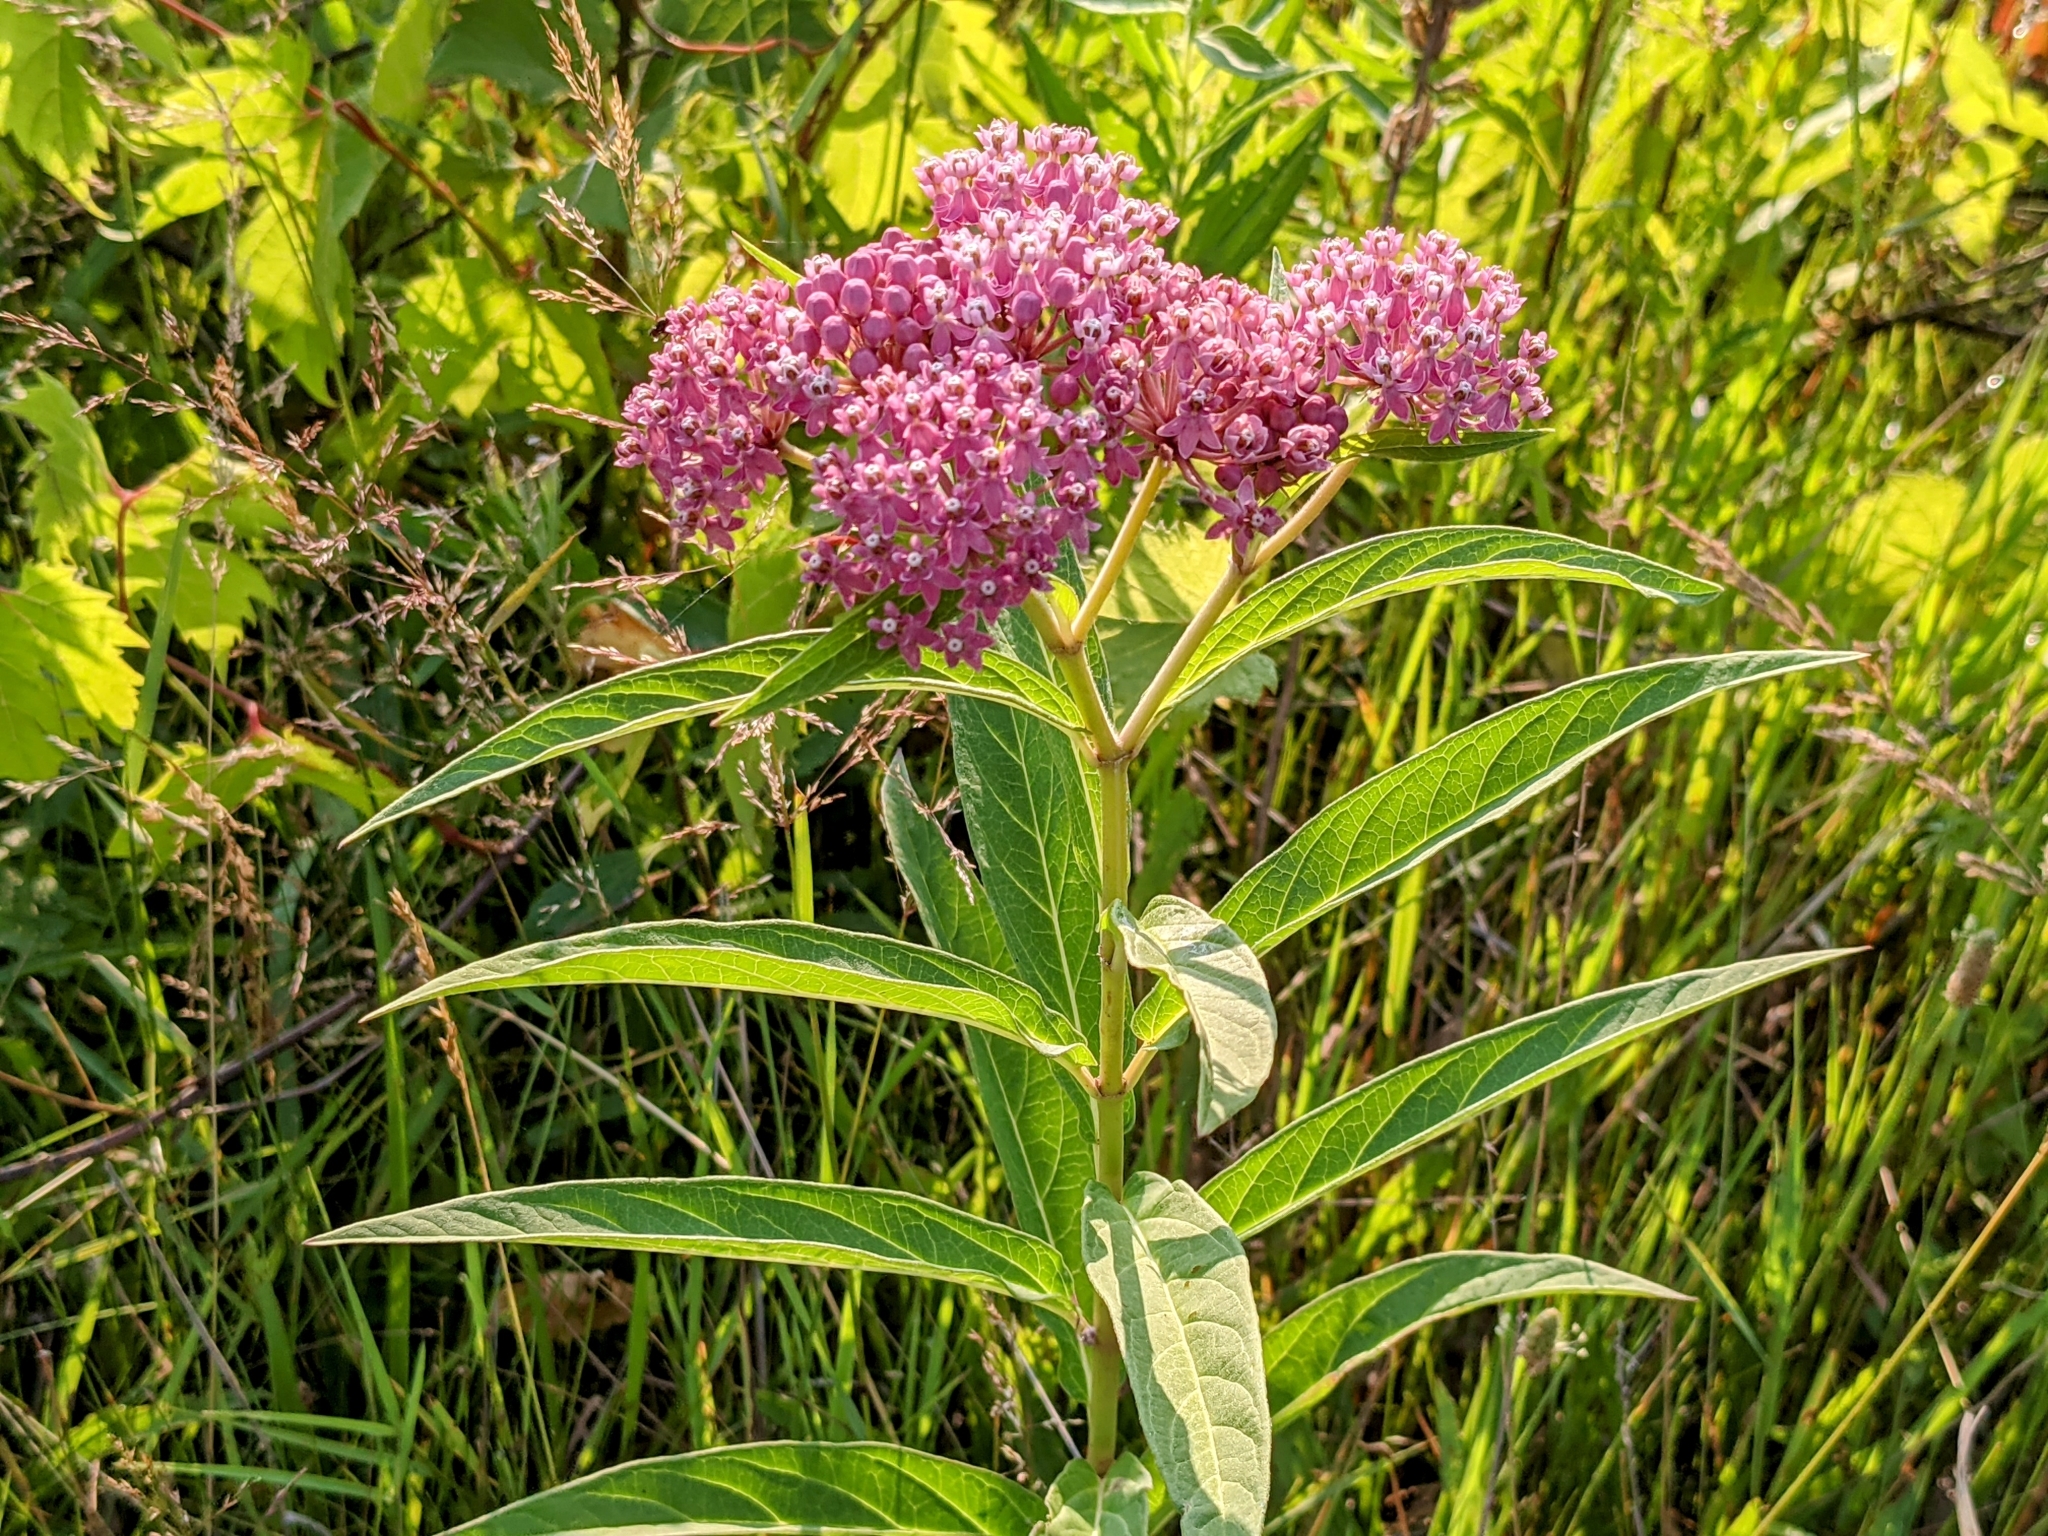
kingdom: Plantae
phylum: Tracheophyta
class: Magnoliopsida
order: Gentianales
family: Apocynaceae
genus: Asclepias
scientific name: Asclepias incarnata
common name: Swamp milkweed
